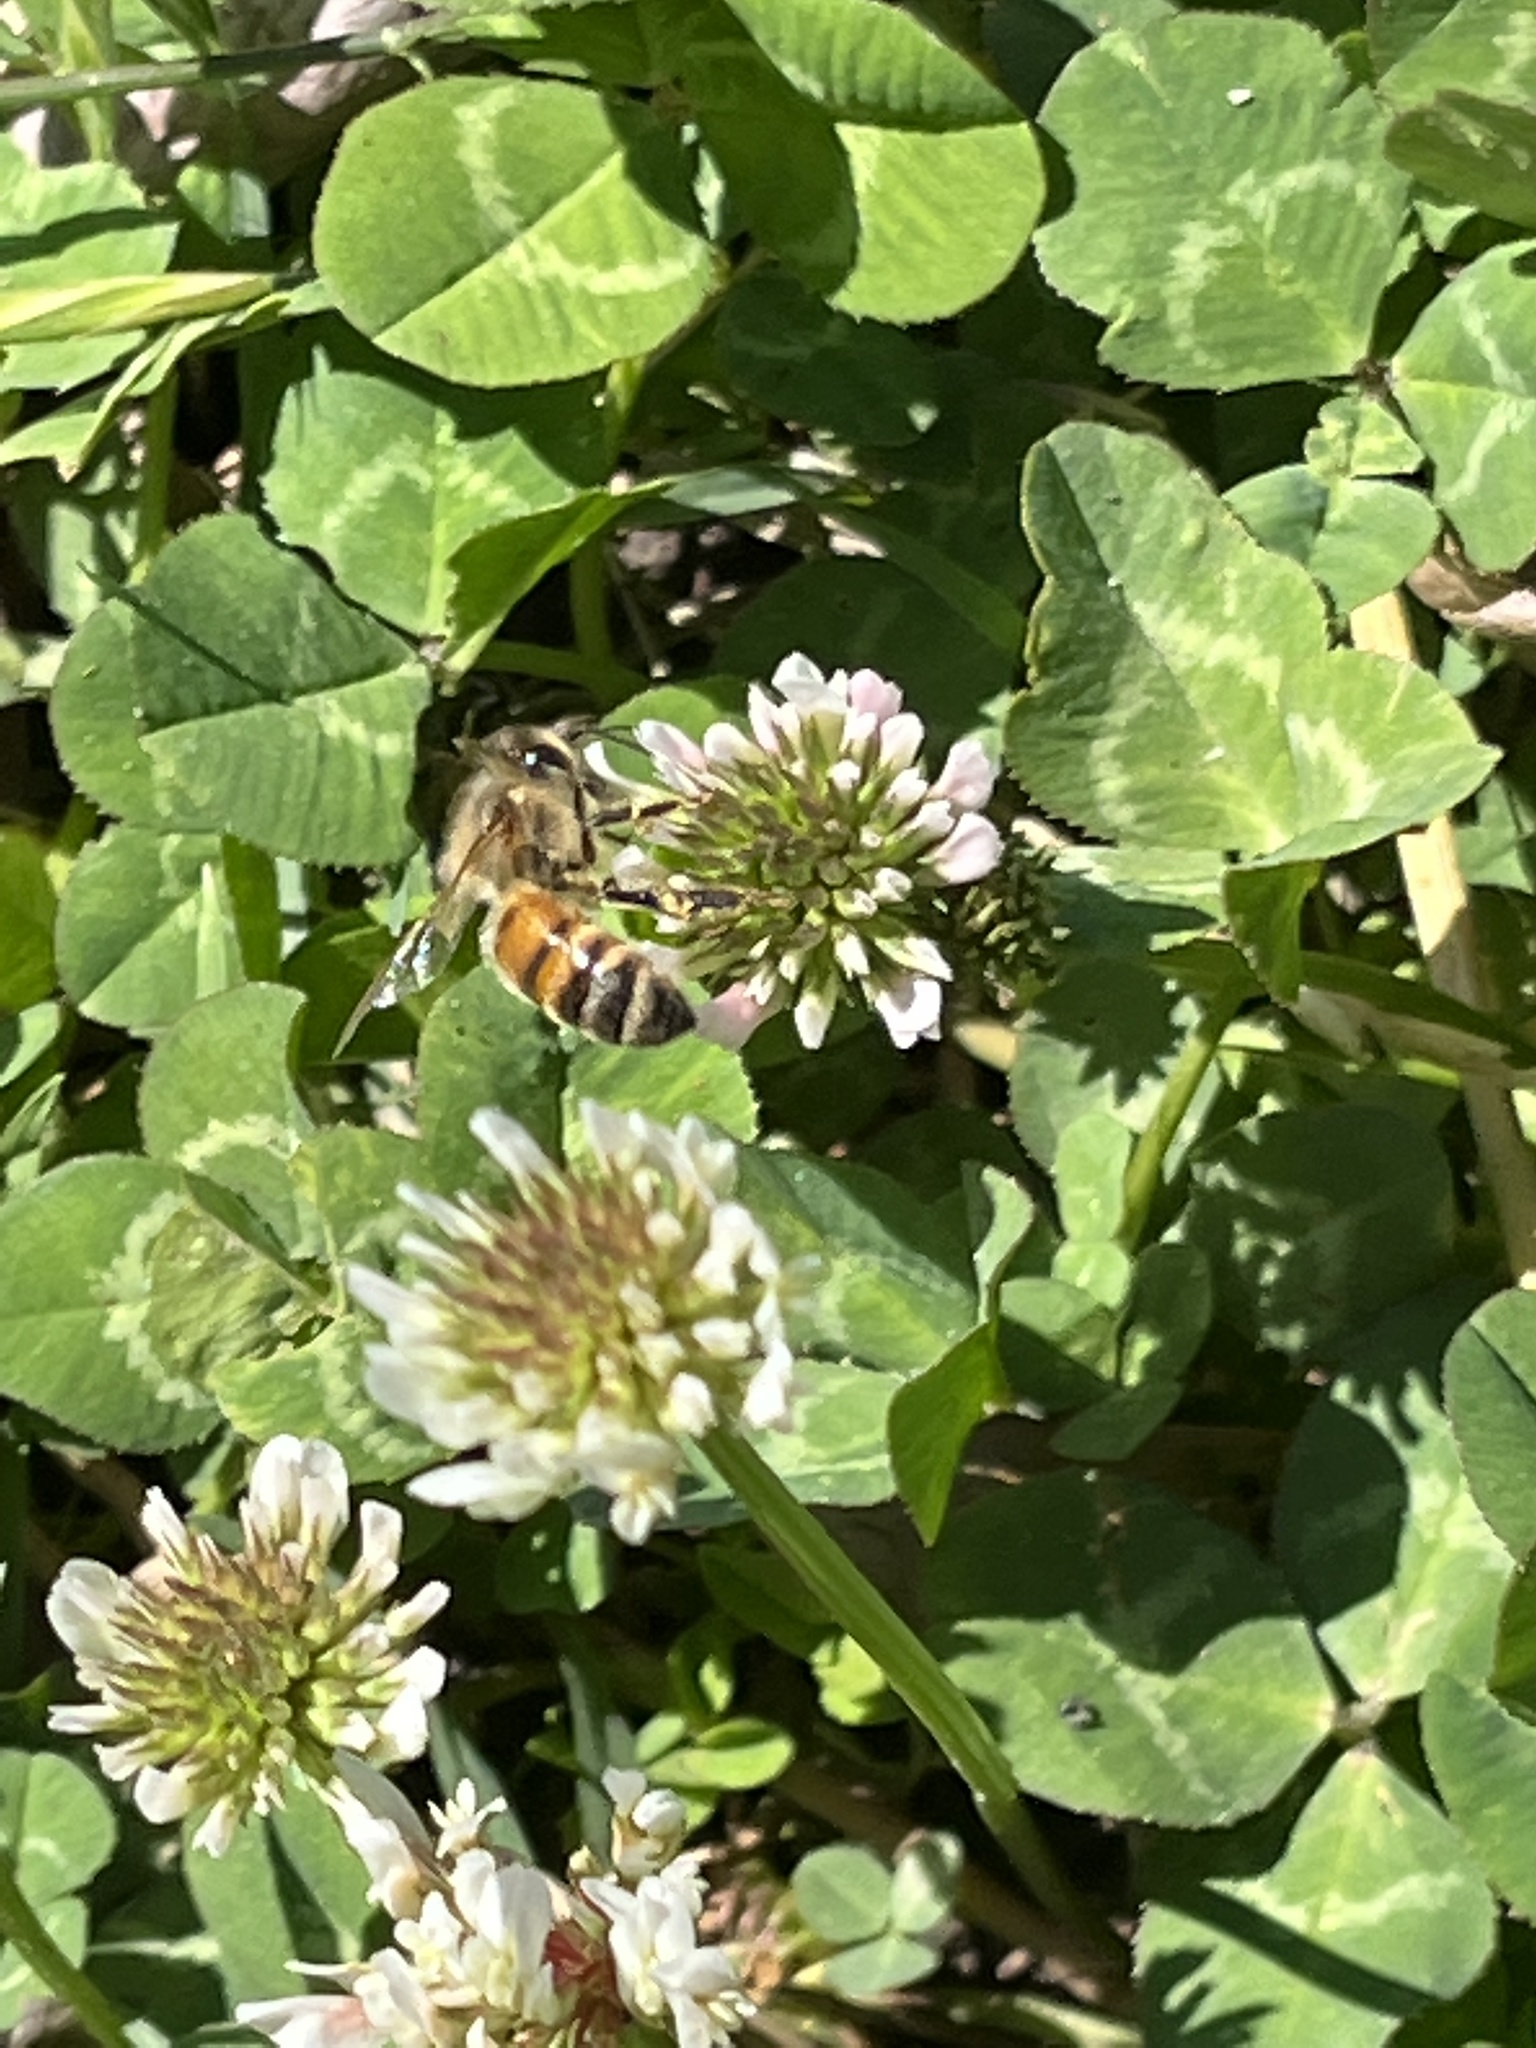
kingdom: Animalia
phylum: Arthropoda
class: Insecta
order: Hymenoptera
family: Apidae
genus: Apis
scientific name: Apis mellifera
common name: Honey bee
